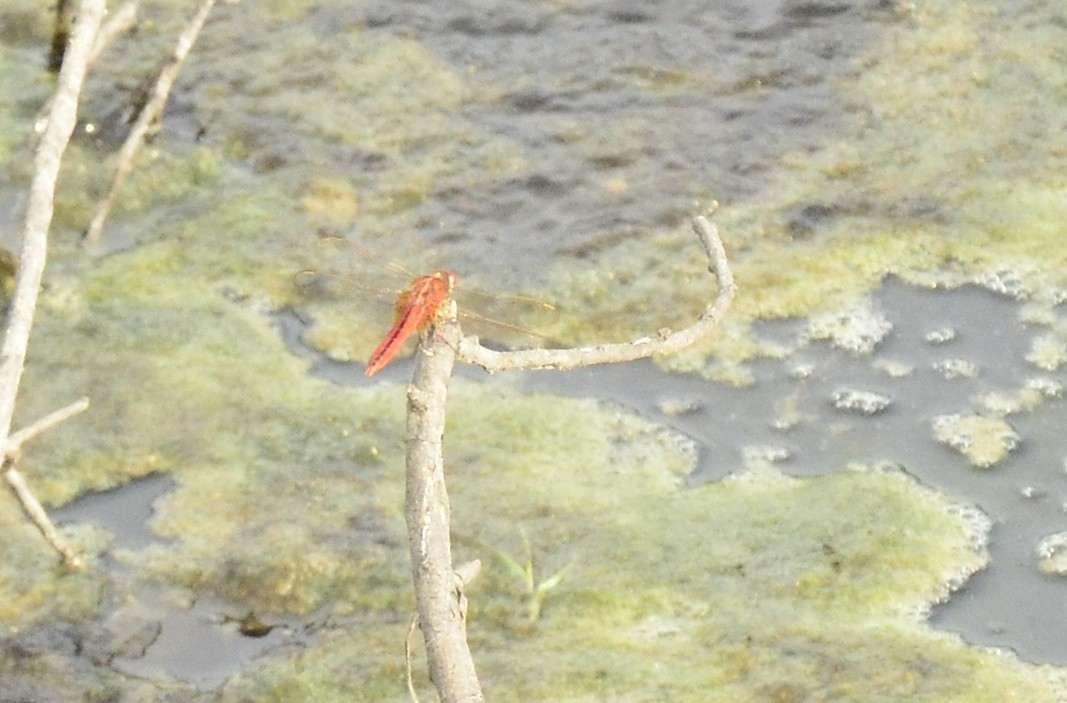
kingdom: Animalia
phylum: Arthropoda
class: Insecta
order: Odonata
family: Libellulidae
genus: Crocothemis
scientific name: Crocothemis servilia
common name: Scarlet skimmer
